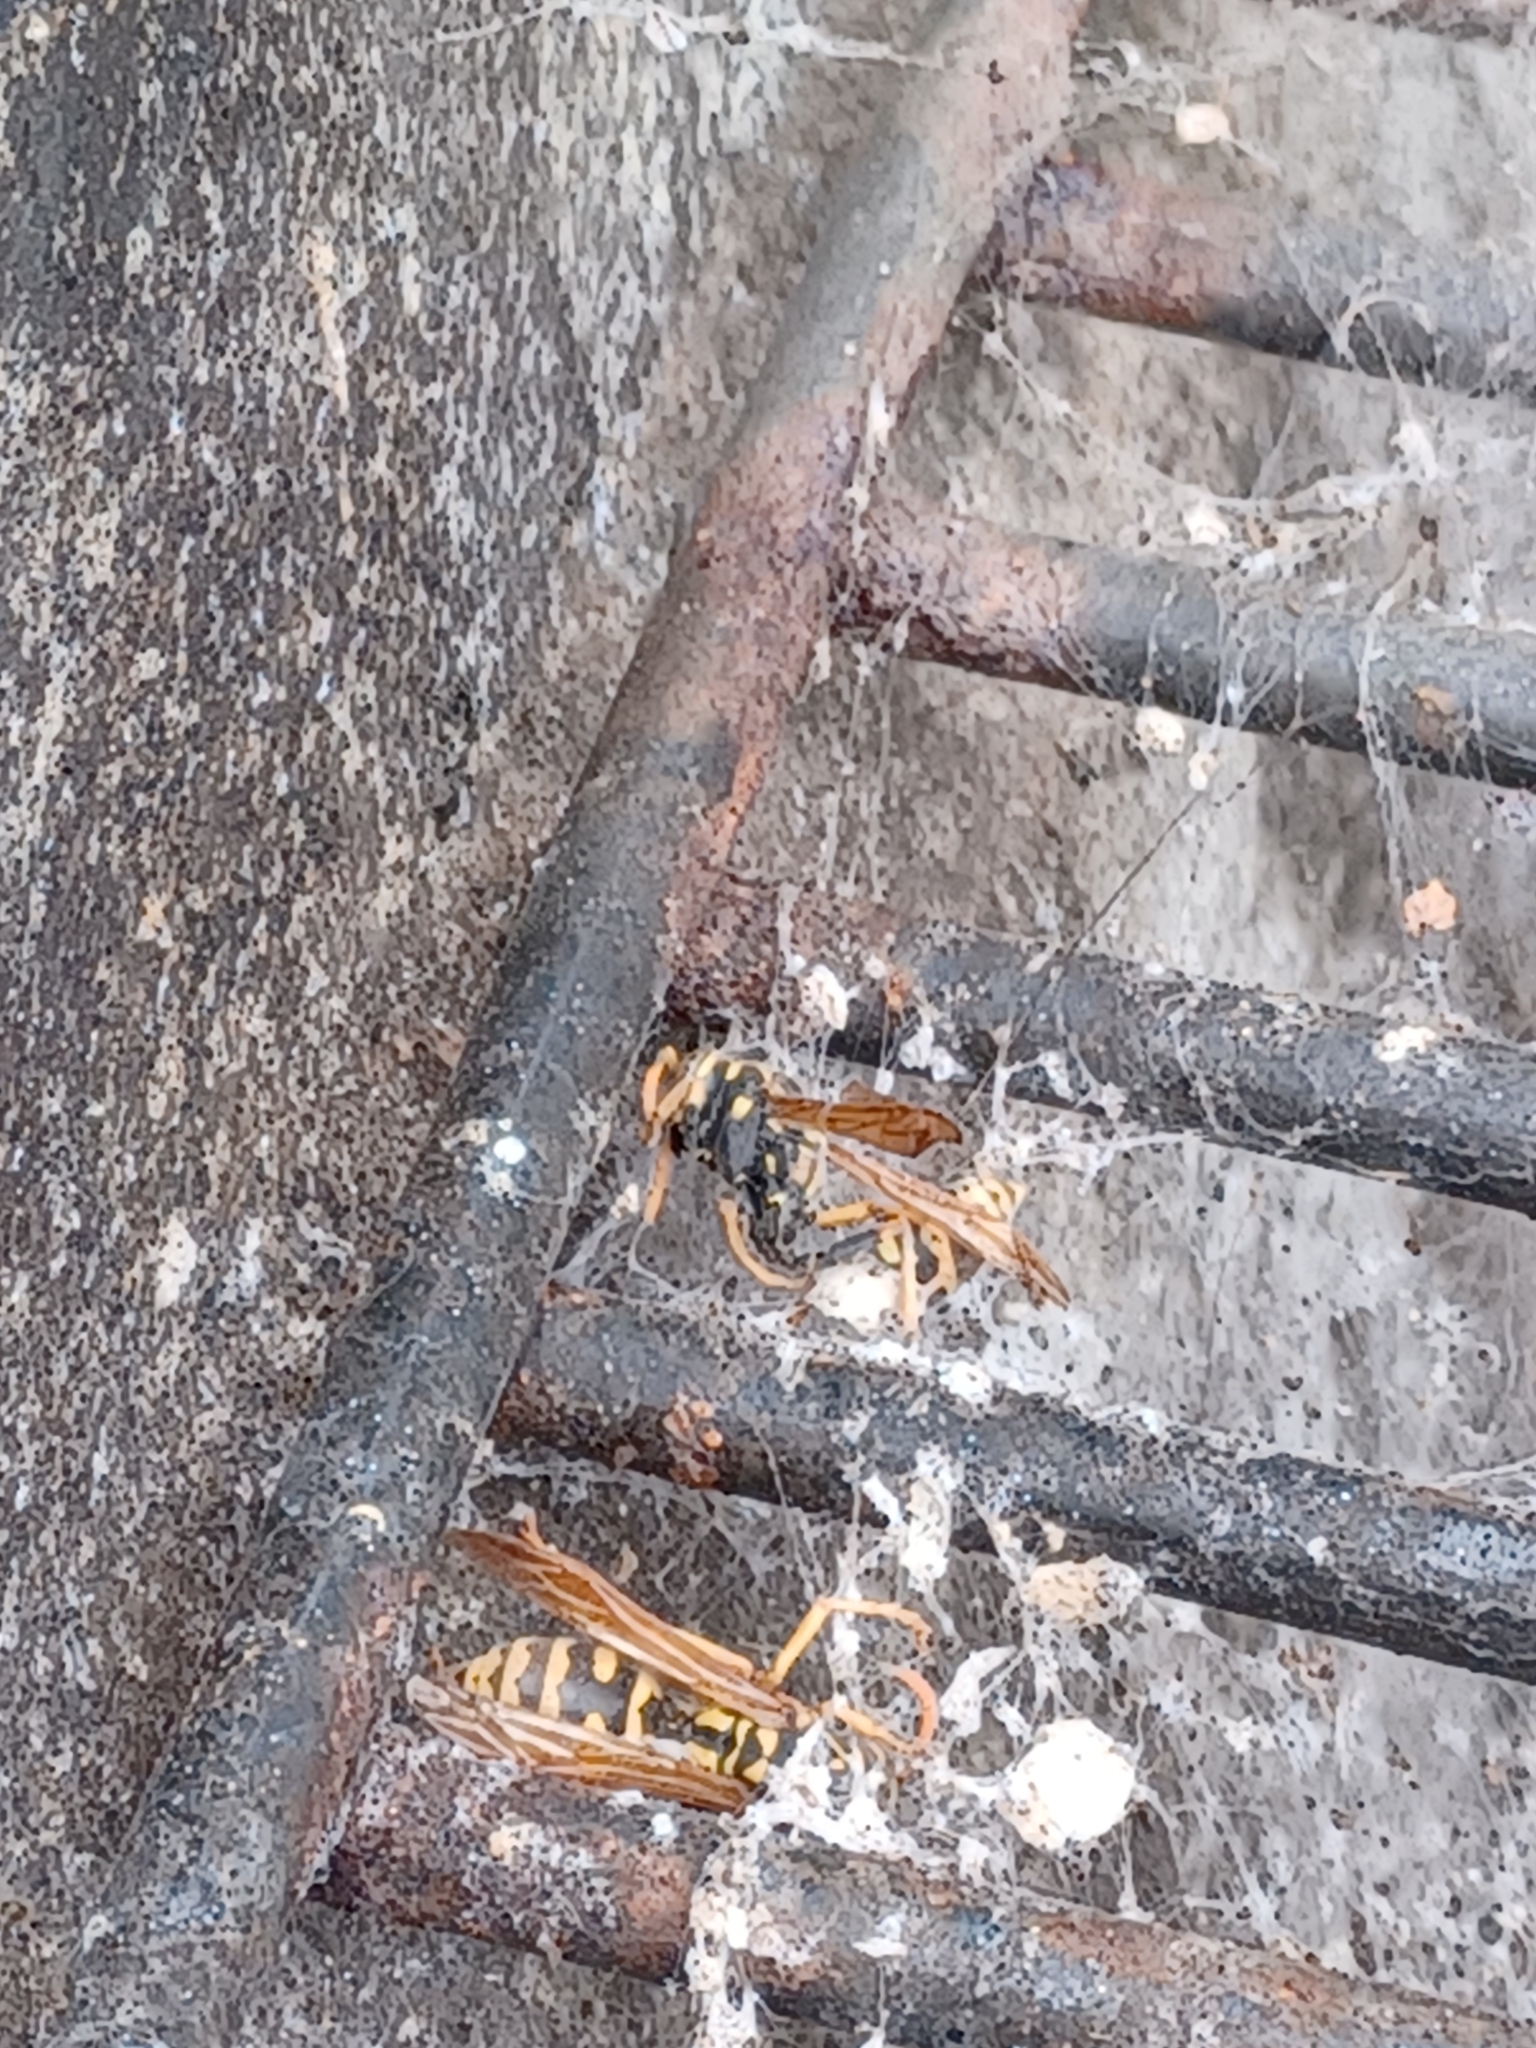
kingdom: Animalia
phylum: Arthropoda
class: Insecta
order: Hymenoptera
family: Eumenidae
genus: Polistes
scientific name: Polistes dominula
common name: Paper wasp
